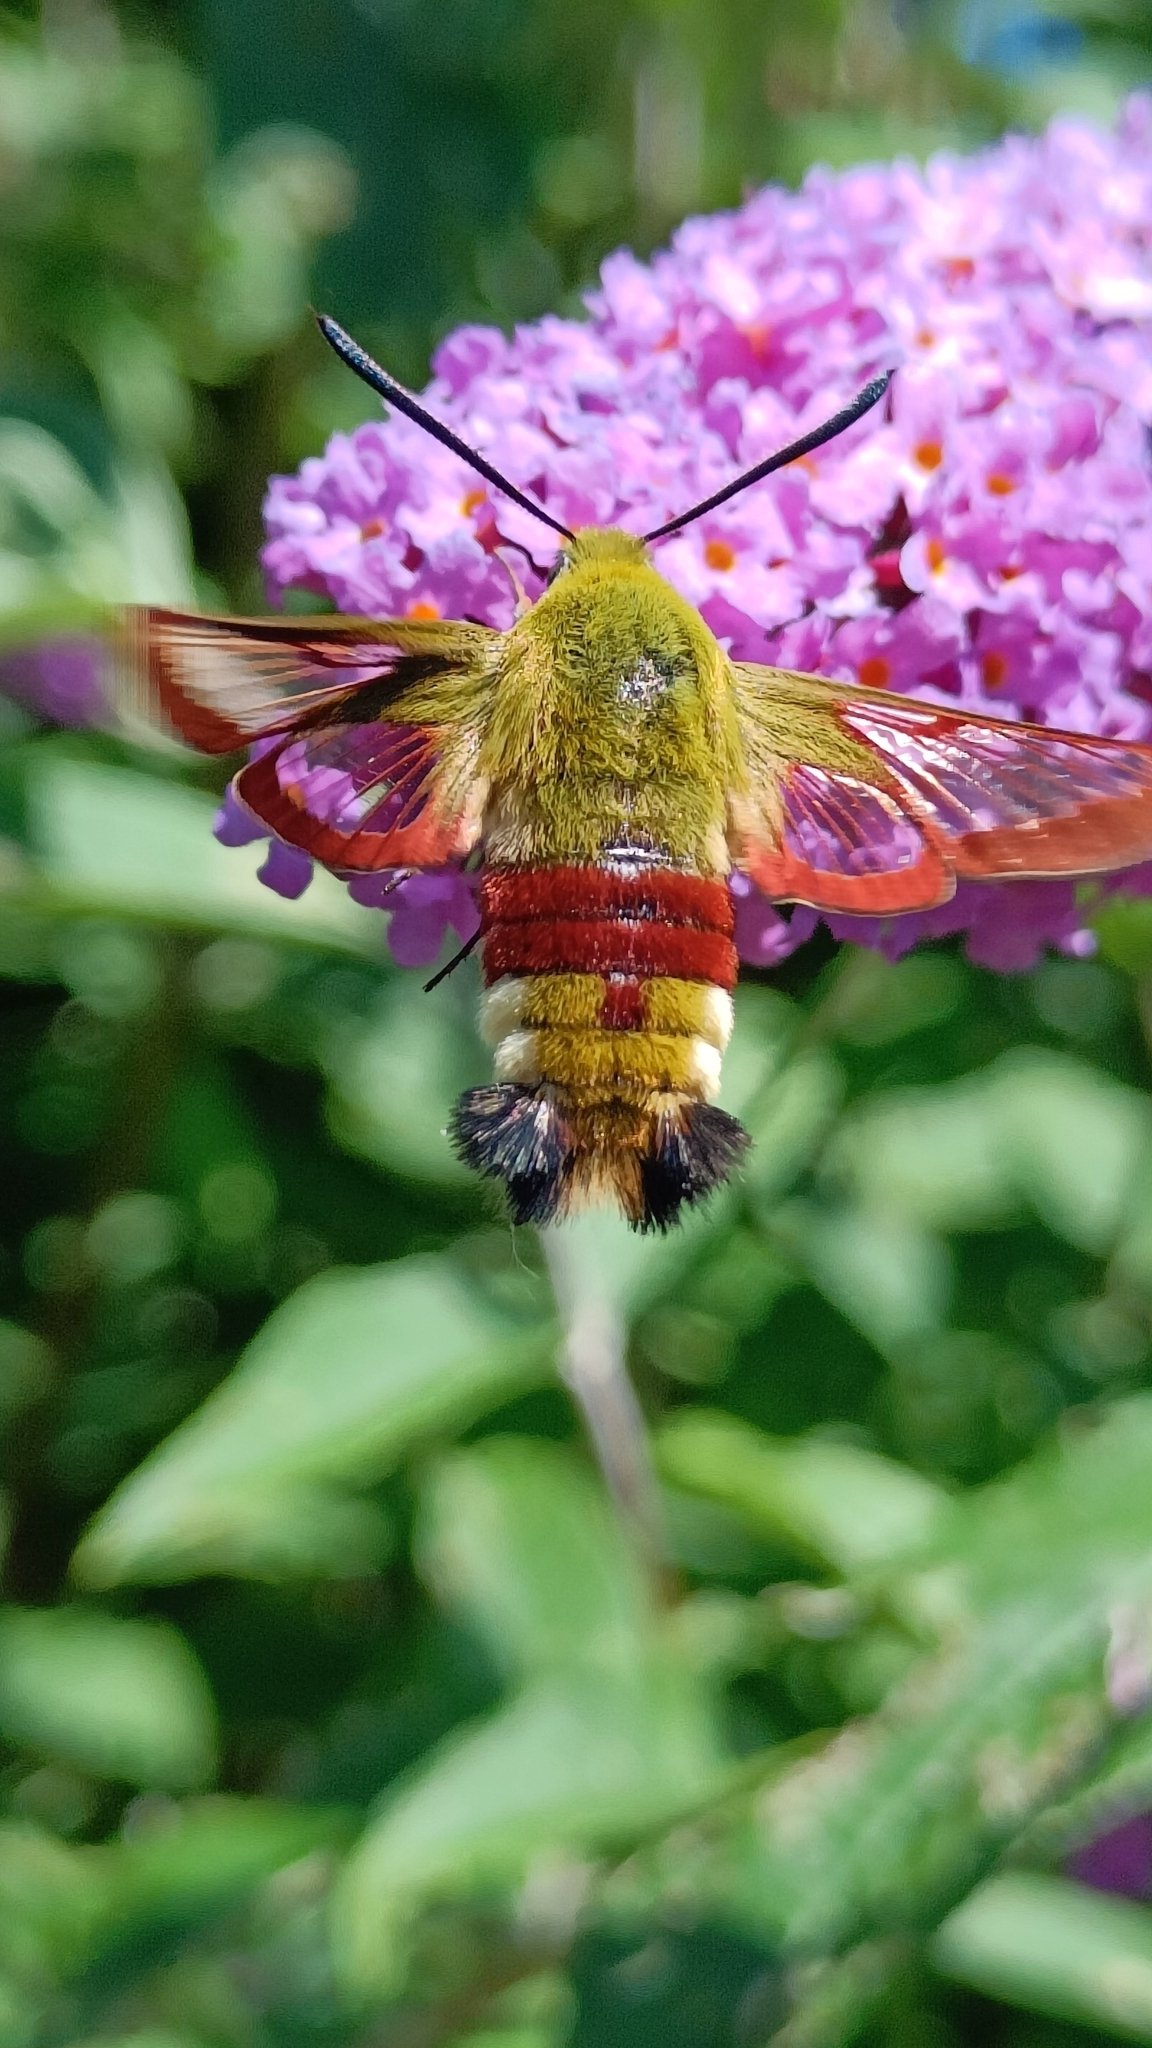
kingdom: Animalia
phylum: Arthropoda
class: Insecta
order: Lepidoptera
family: Sphingidae
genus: Hemaris
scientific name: Hemaris fuciformis
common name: Broad-bordered bee hawk-moth
